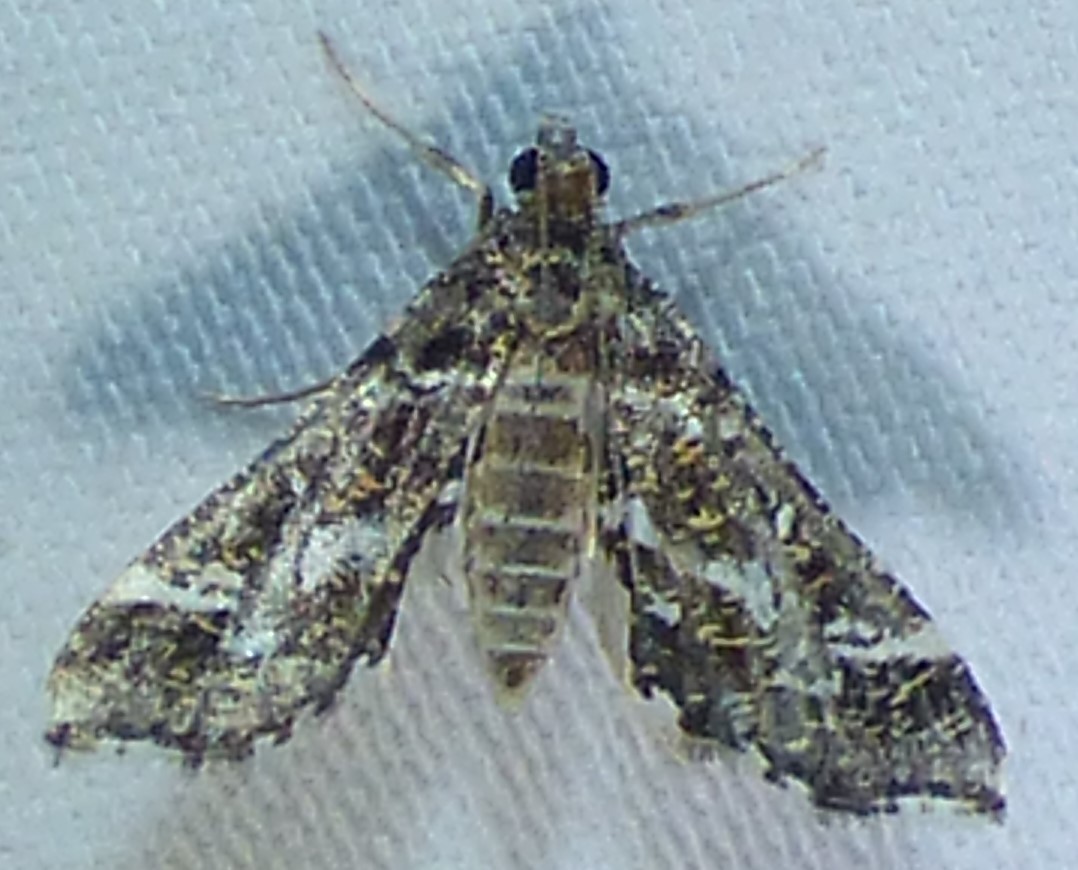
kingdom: Animalia
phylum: Arthropoda
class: Insecta
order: Lepidoptera
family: Crambidae
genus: Diasemiopsis
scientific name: Diasemiopsis ramburialis
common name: Vagrant china-mark
